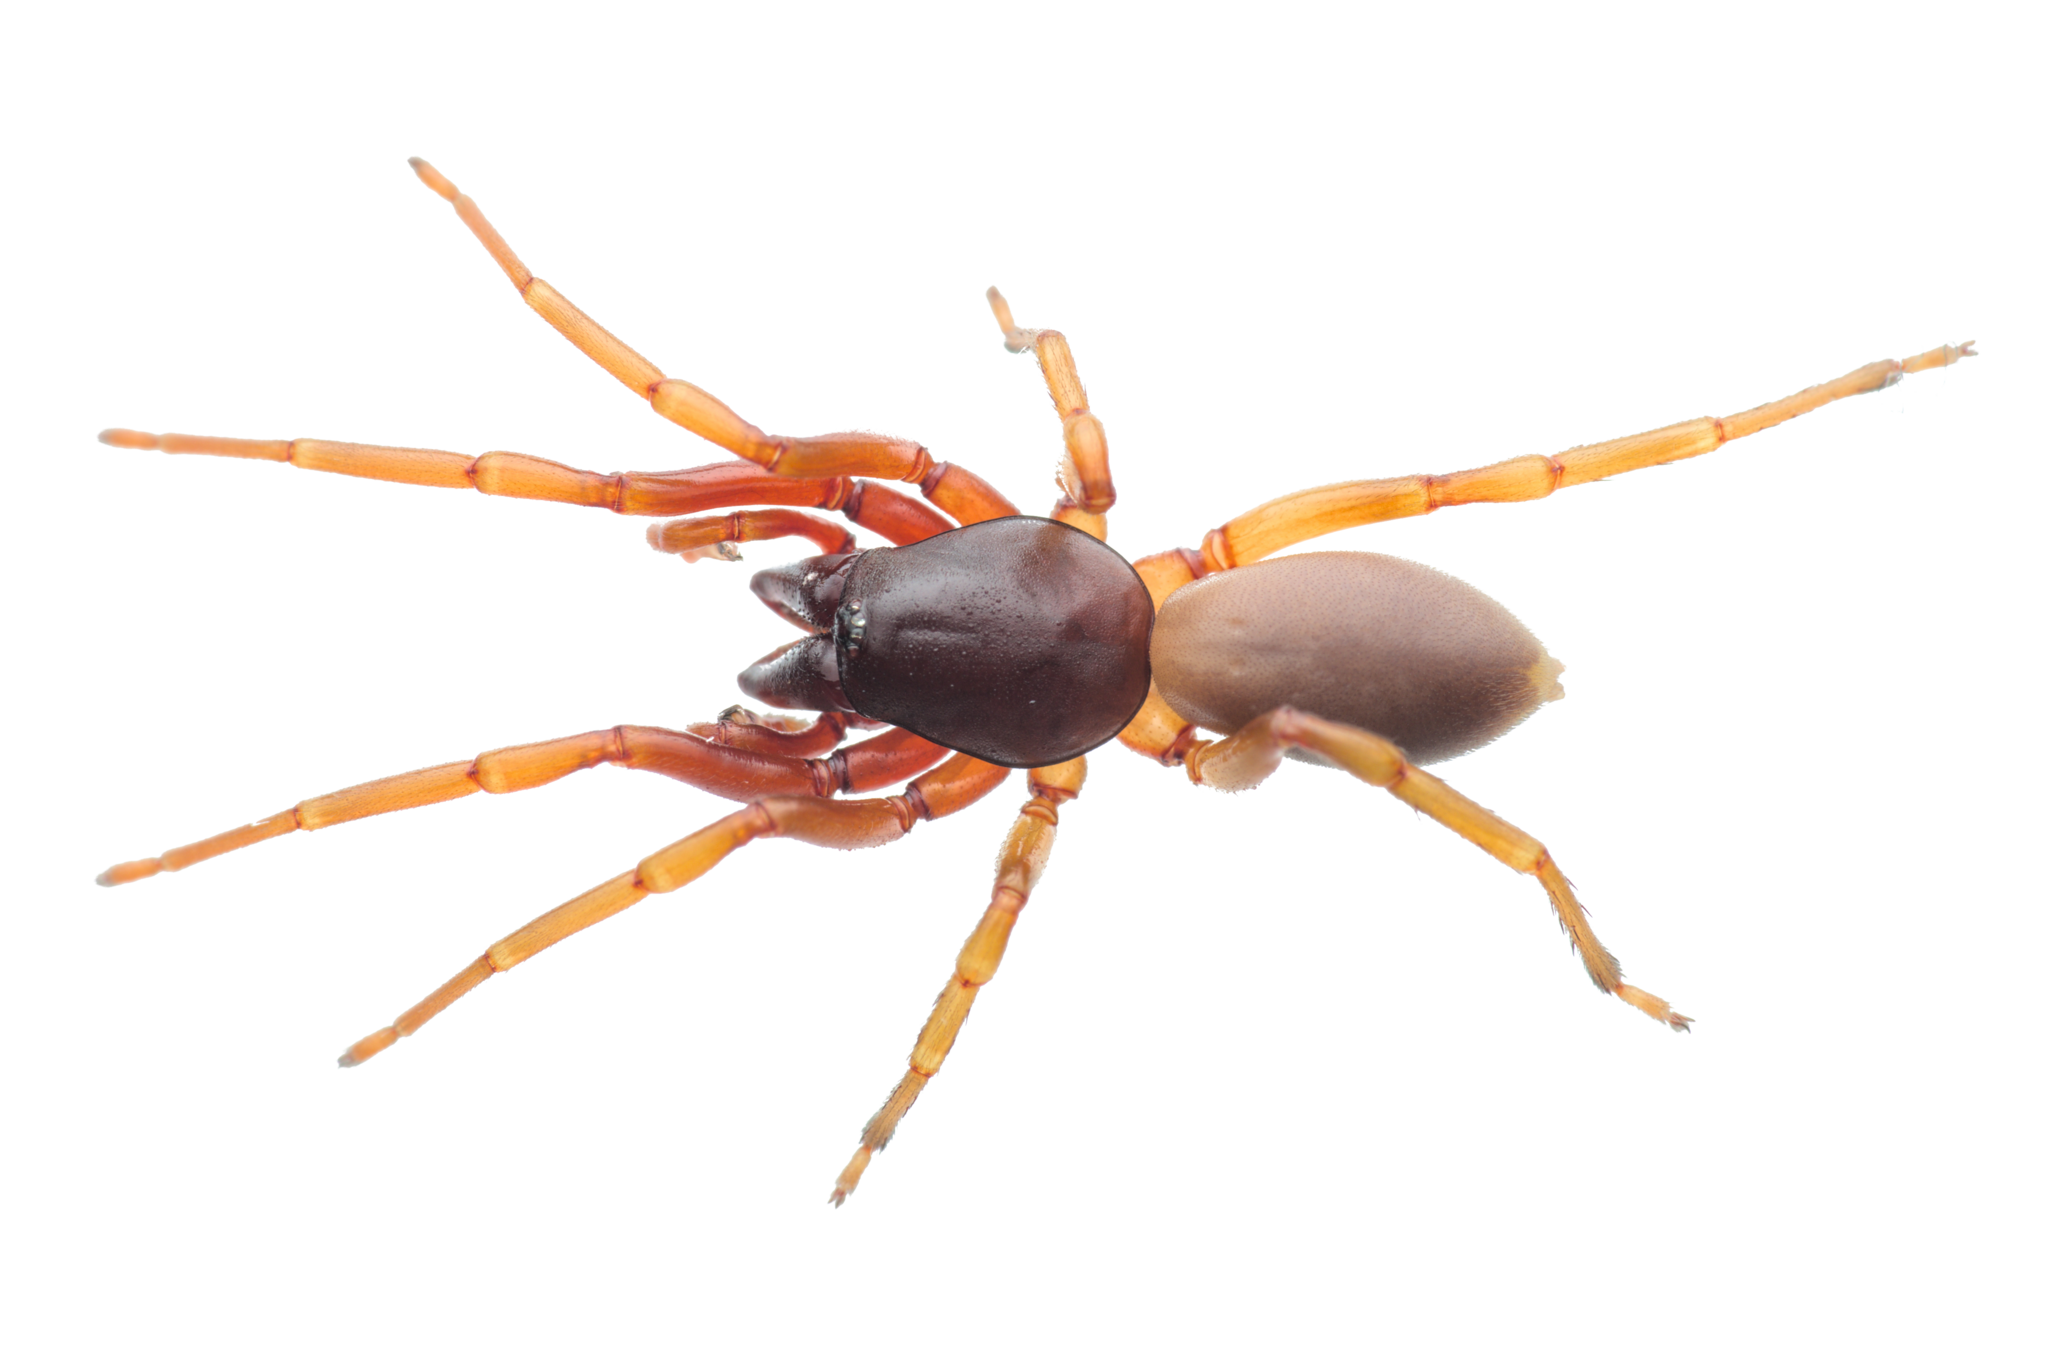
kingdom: Animalia
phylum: Arthropoda
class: Arachnida
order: Araneae
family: Dysderidae
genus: Dysdera
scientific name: Dysdera erythrina
